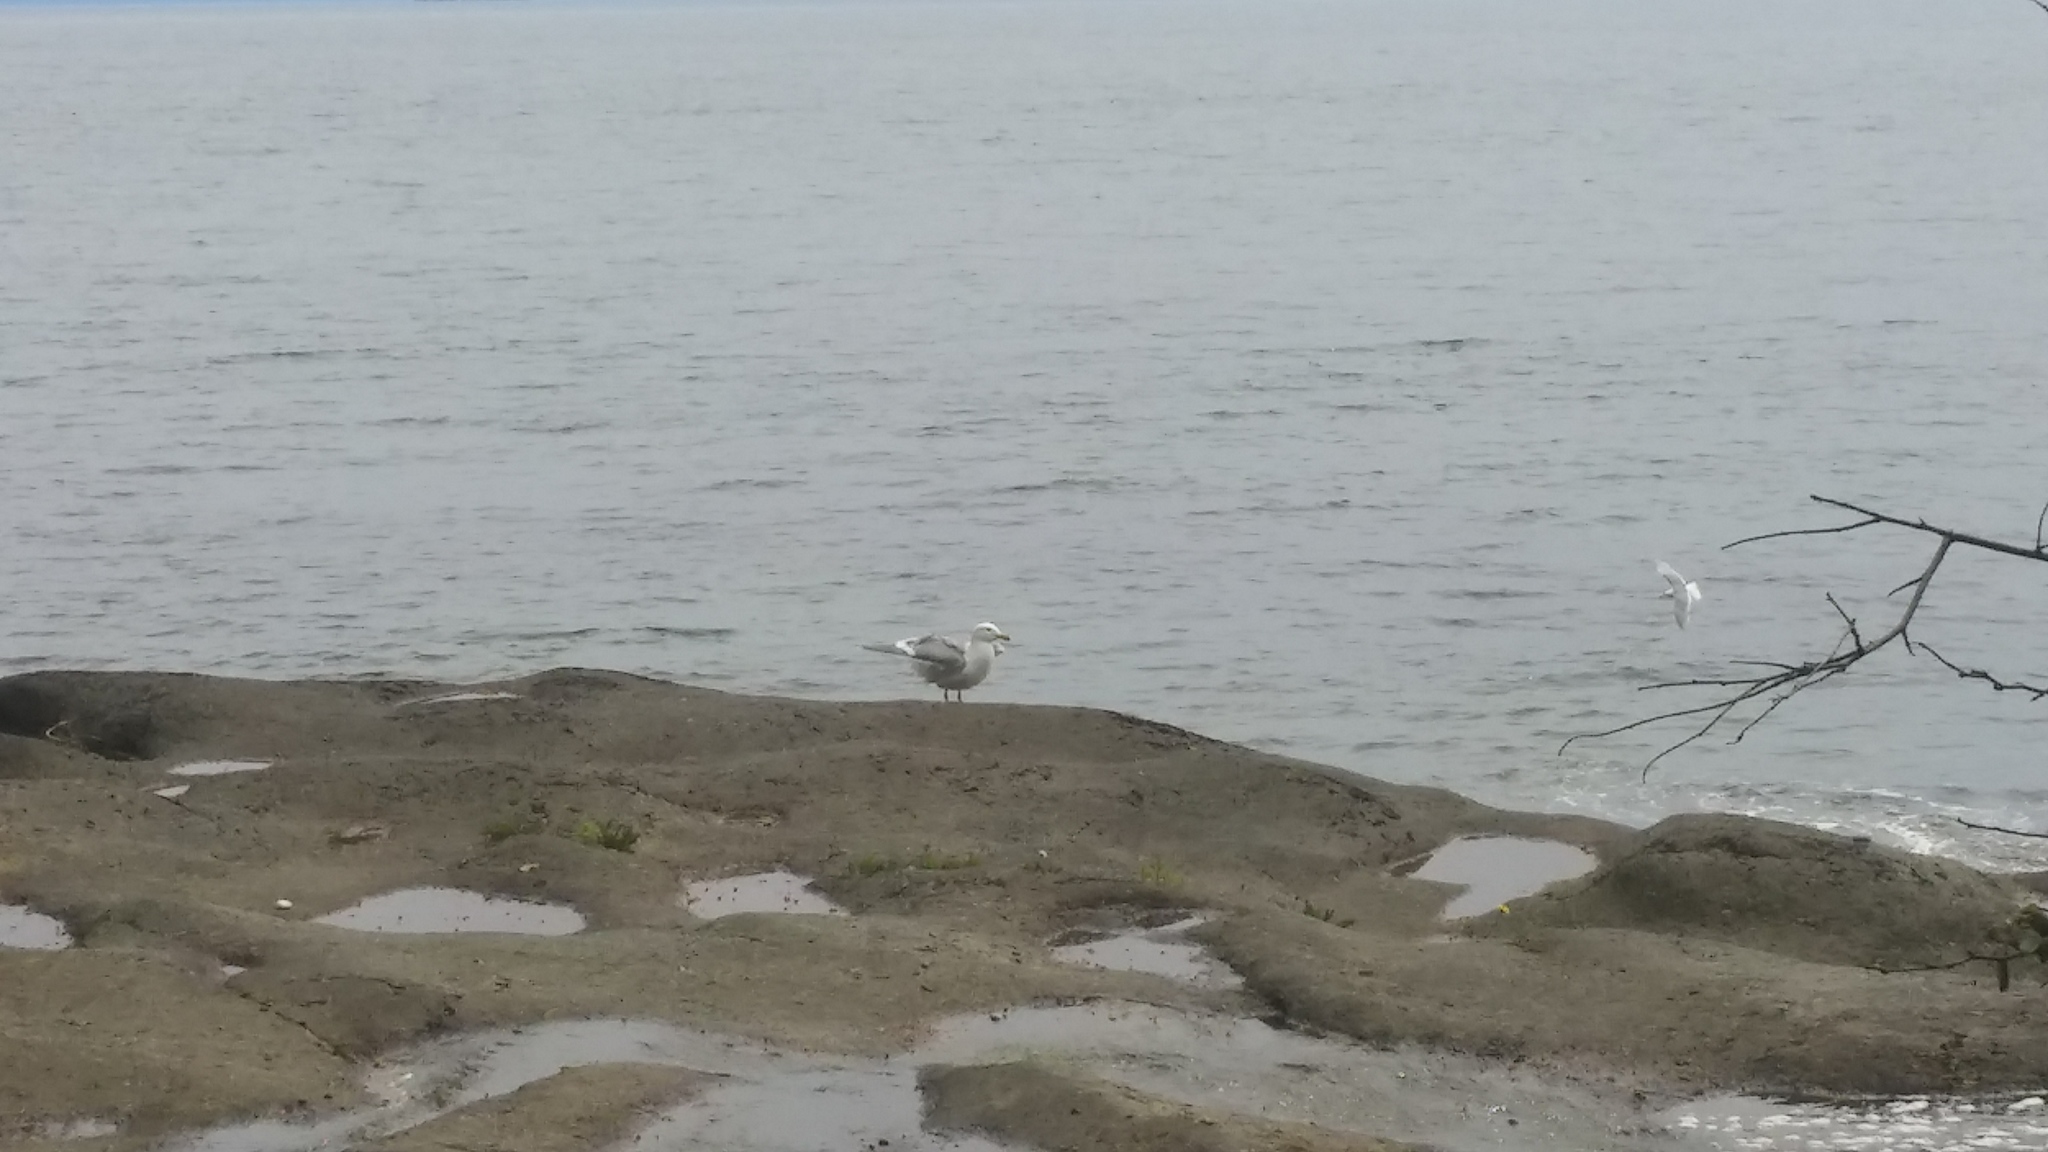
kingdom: Animalia
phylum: Chordata
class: Aves
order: Charadriiformes
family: Laridae
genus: Larus
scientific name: Larus
